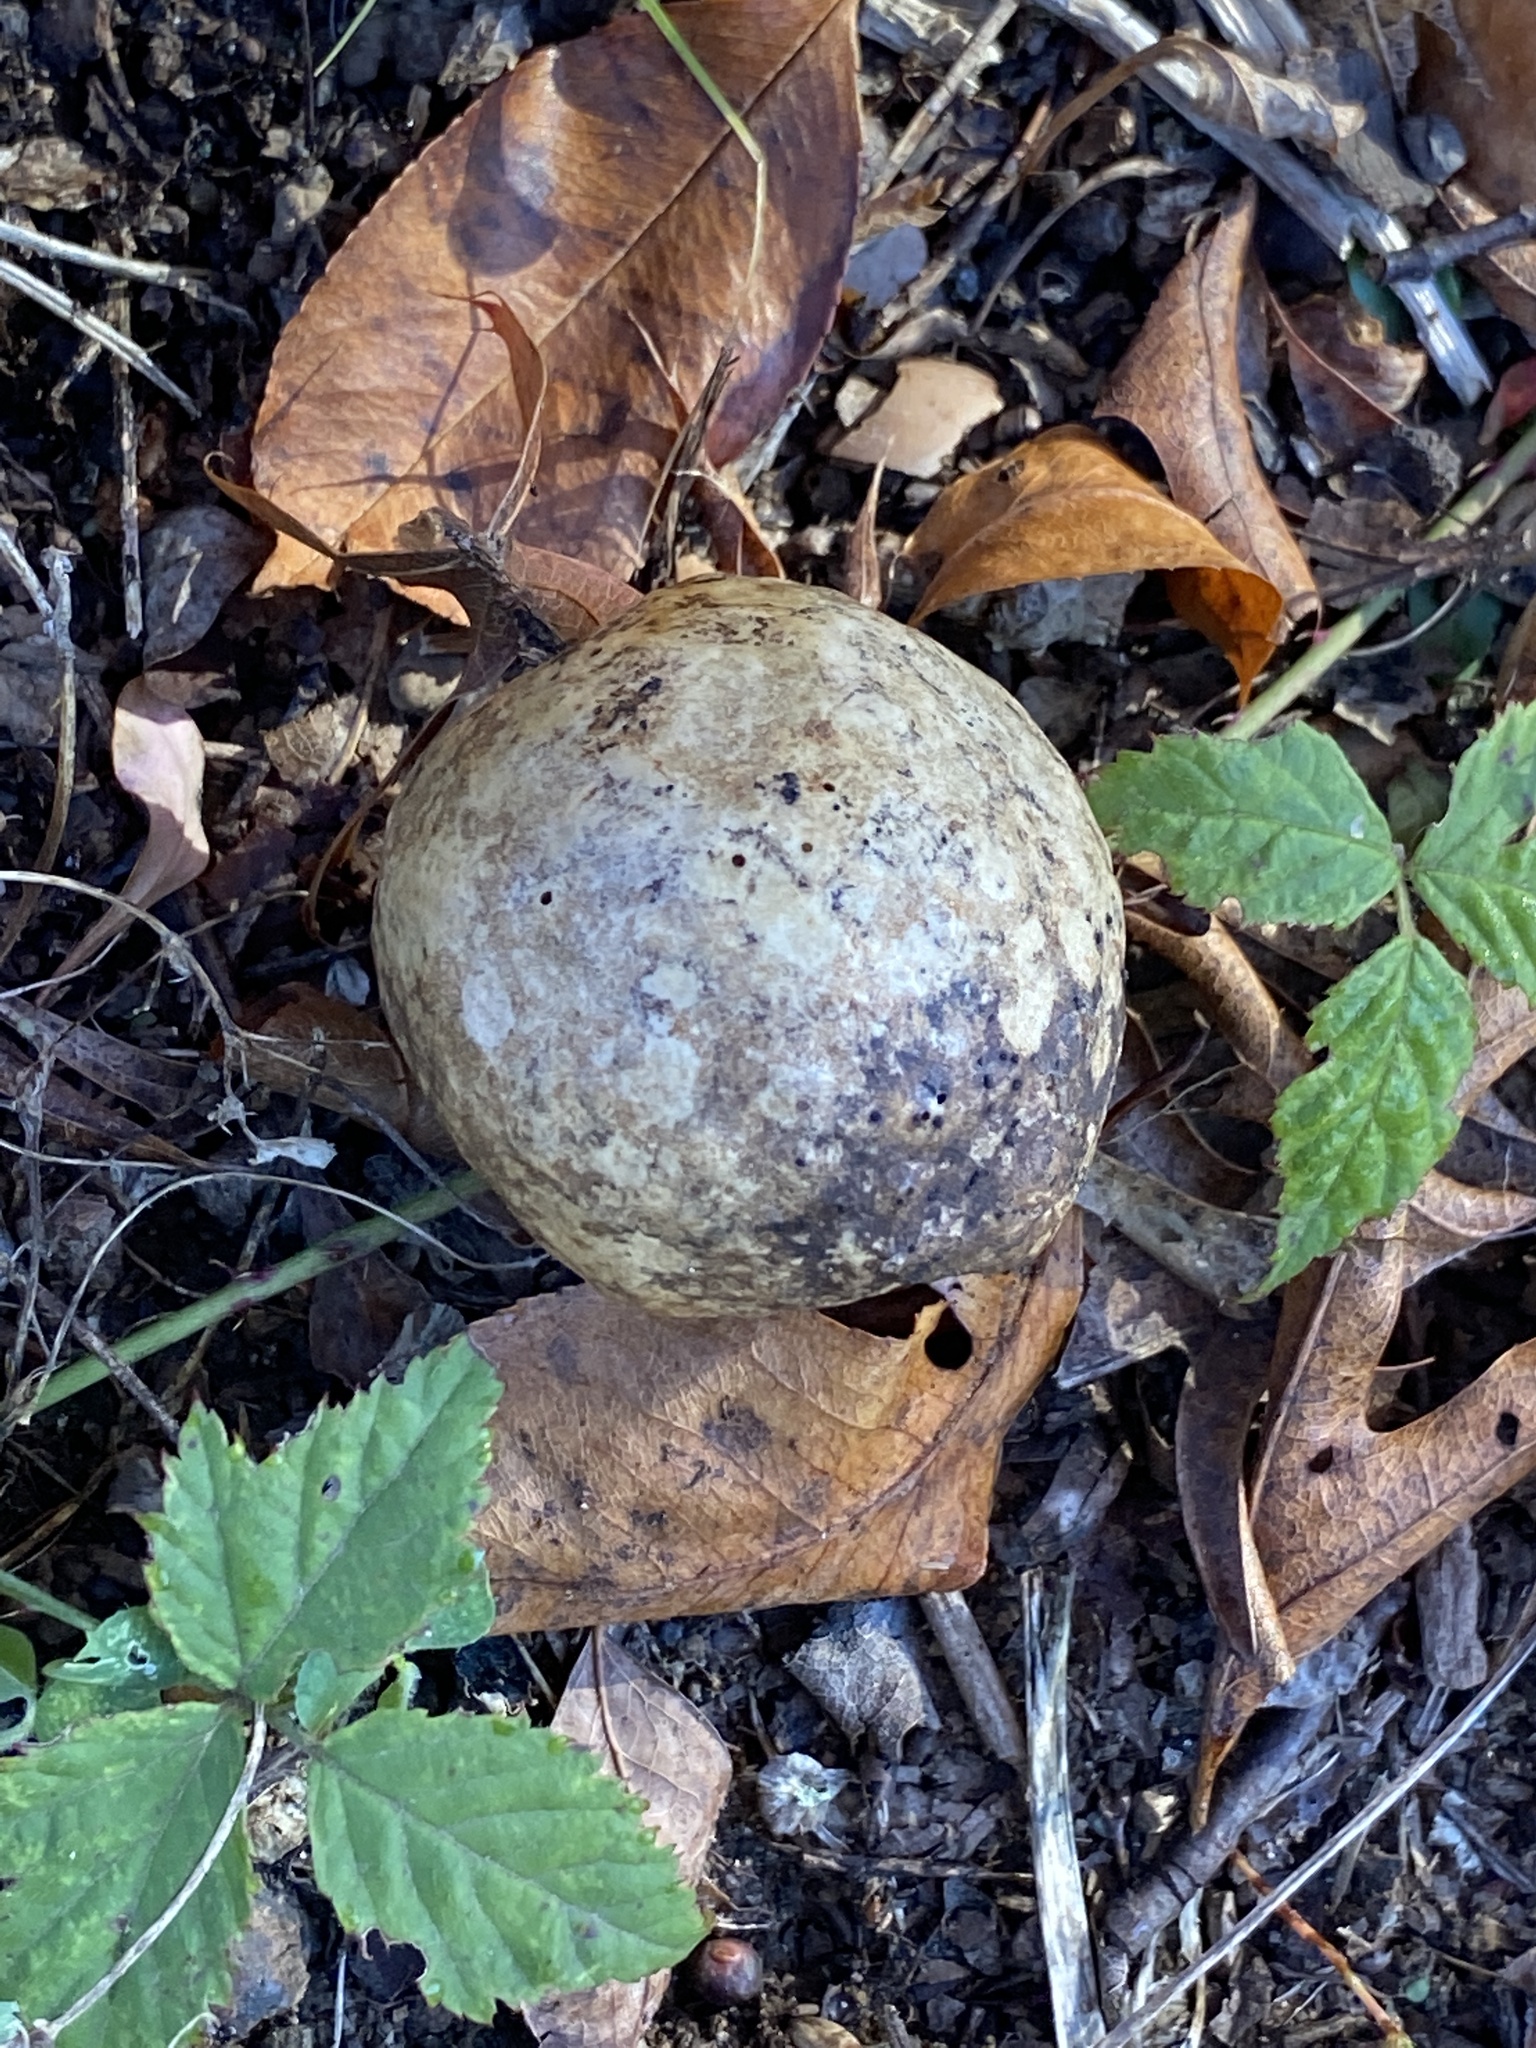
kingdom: Animalia
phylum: Arthropoda
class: Insecta
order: Hymenoptera
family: Cynipidae
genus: Amphibolips
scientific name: Amphibolips
